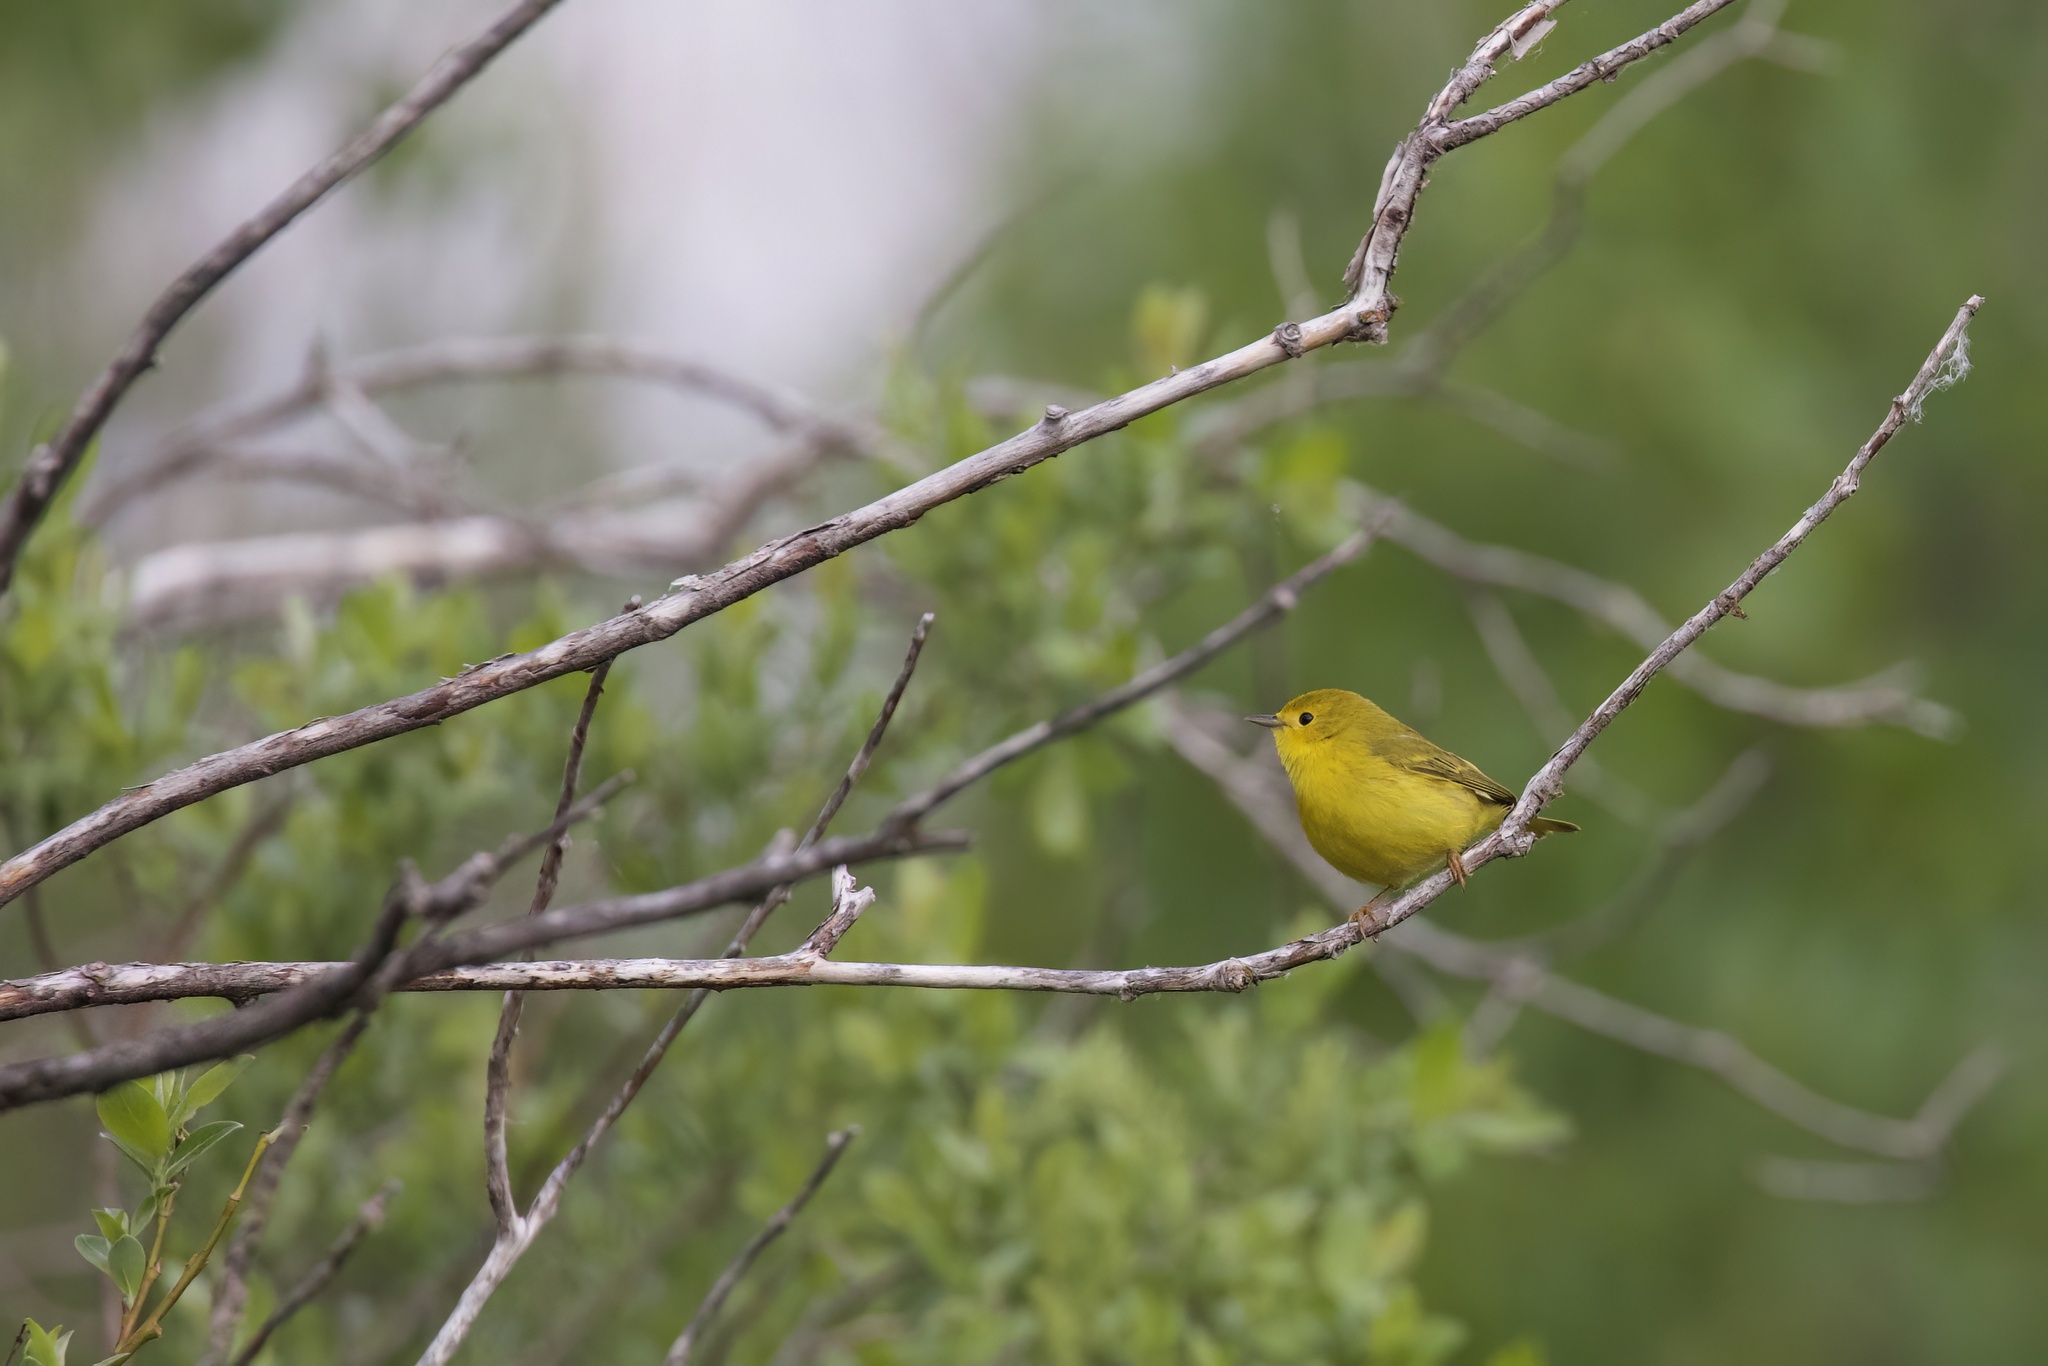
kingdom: Animalia
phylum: Chordata
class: Aves
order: Passeriformes
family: Parulidae
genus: Setophaga
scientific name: Setophaga petechia
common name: Yellow warbler
